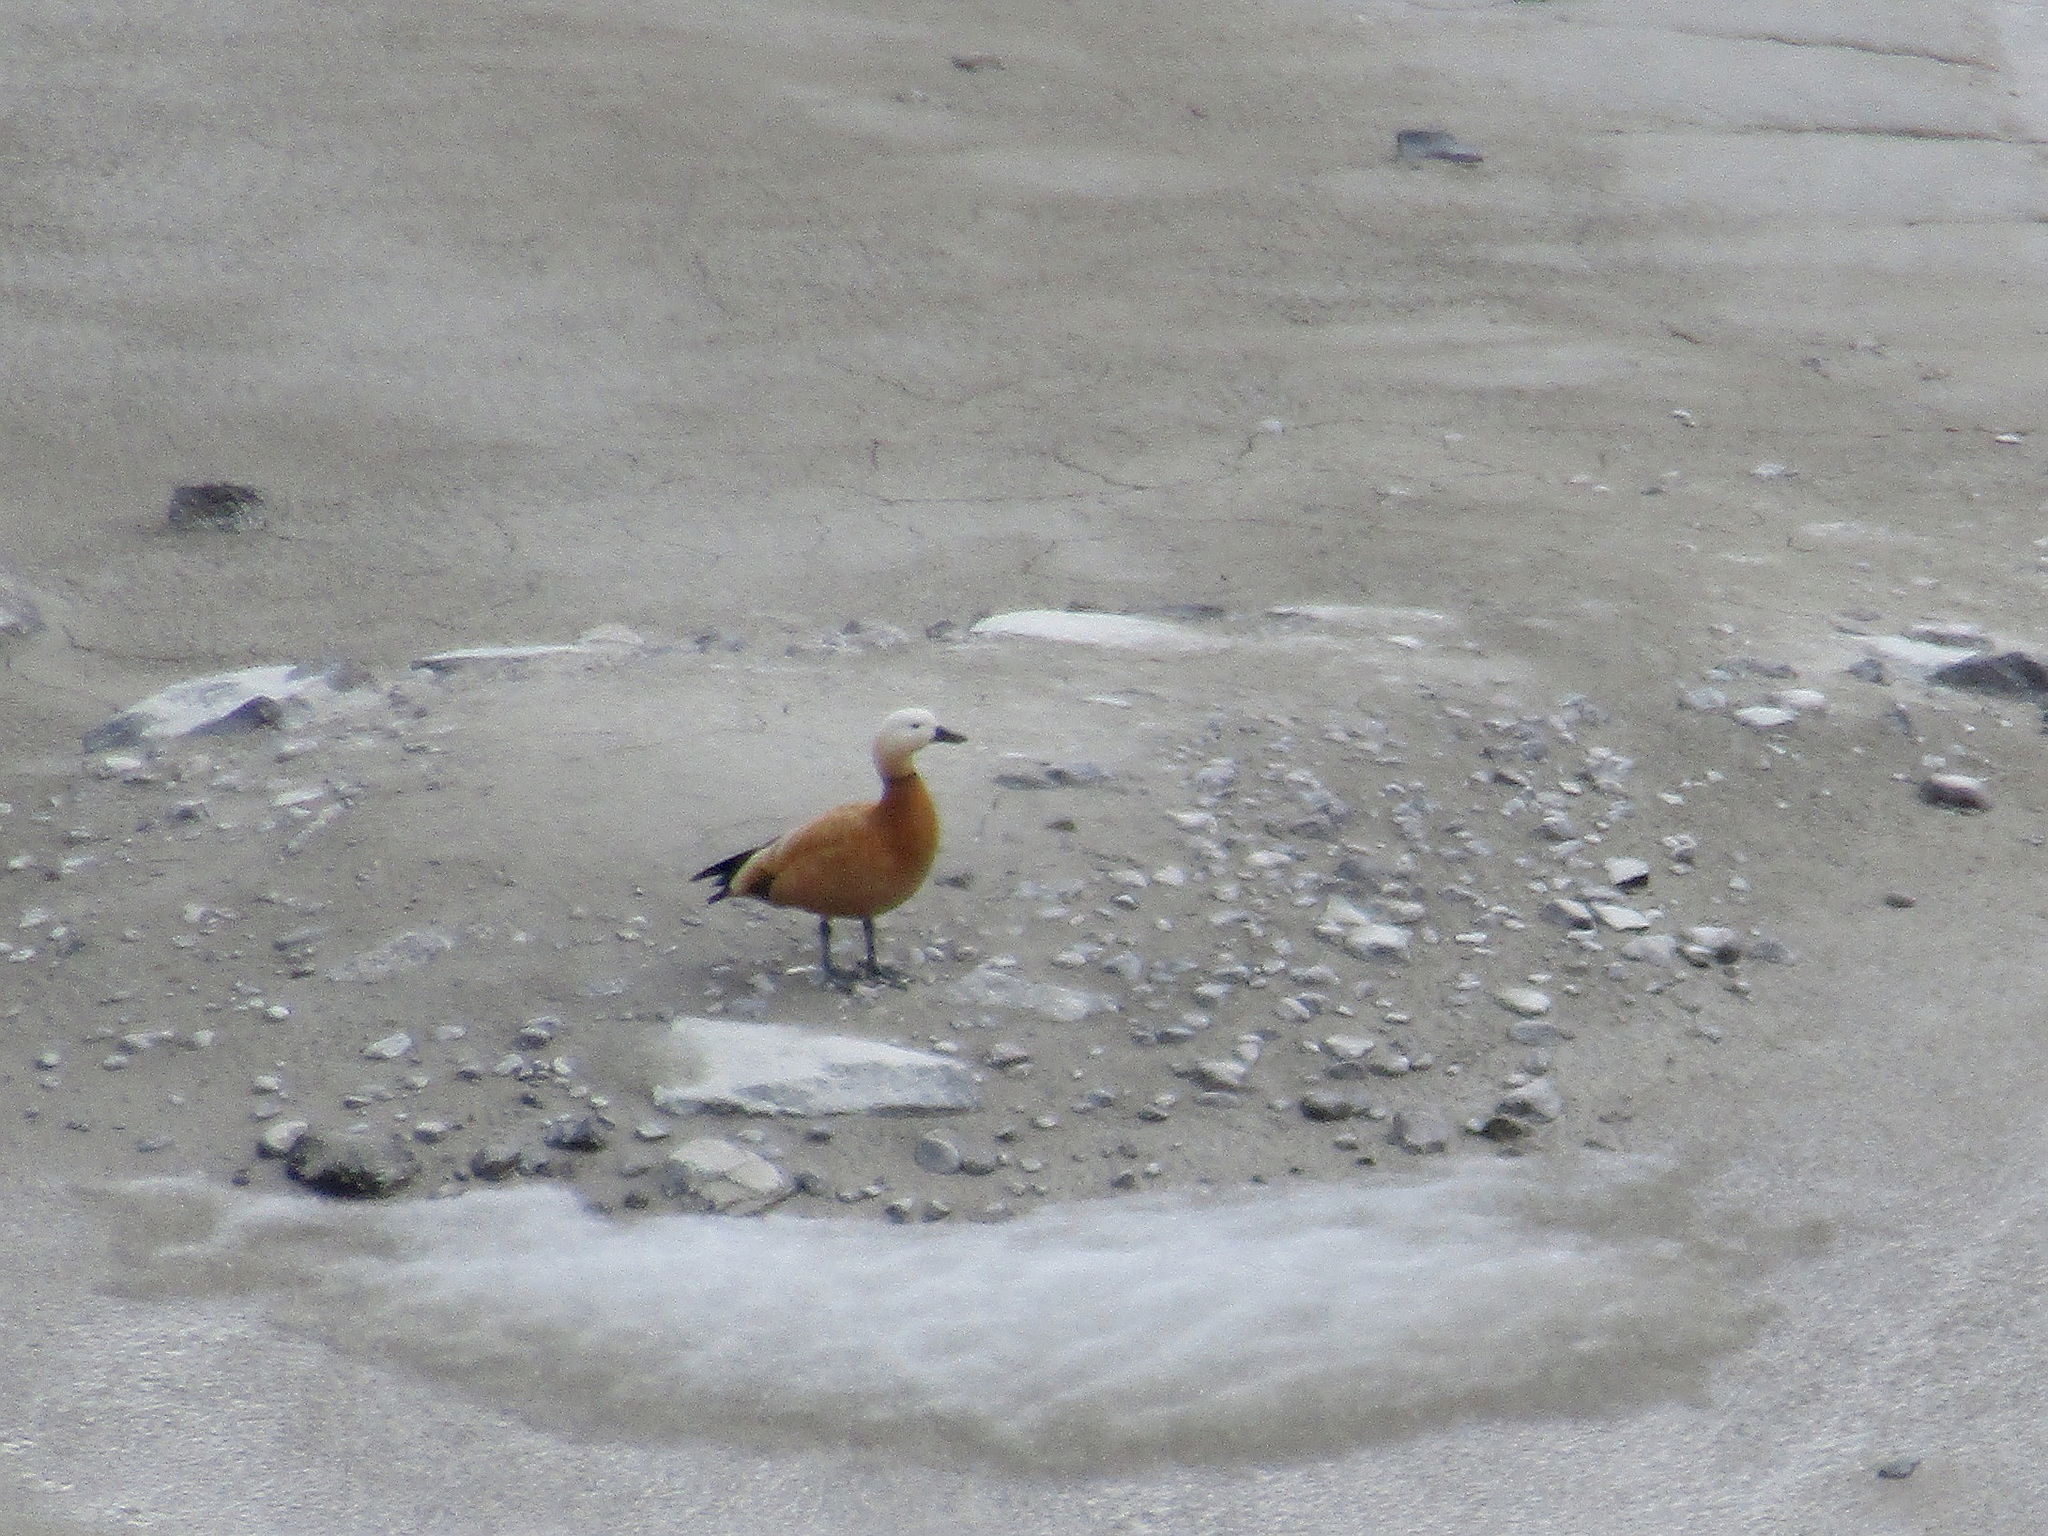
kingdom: Animalia
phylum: Chordata
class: Aves
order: Anseriformes
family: Anatidae
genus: Tadorna
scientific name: Tadorna ferruginea
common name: Ruddy shelduck
